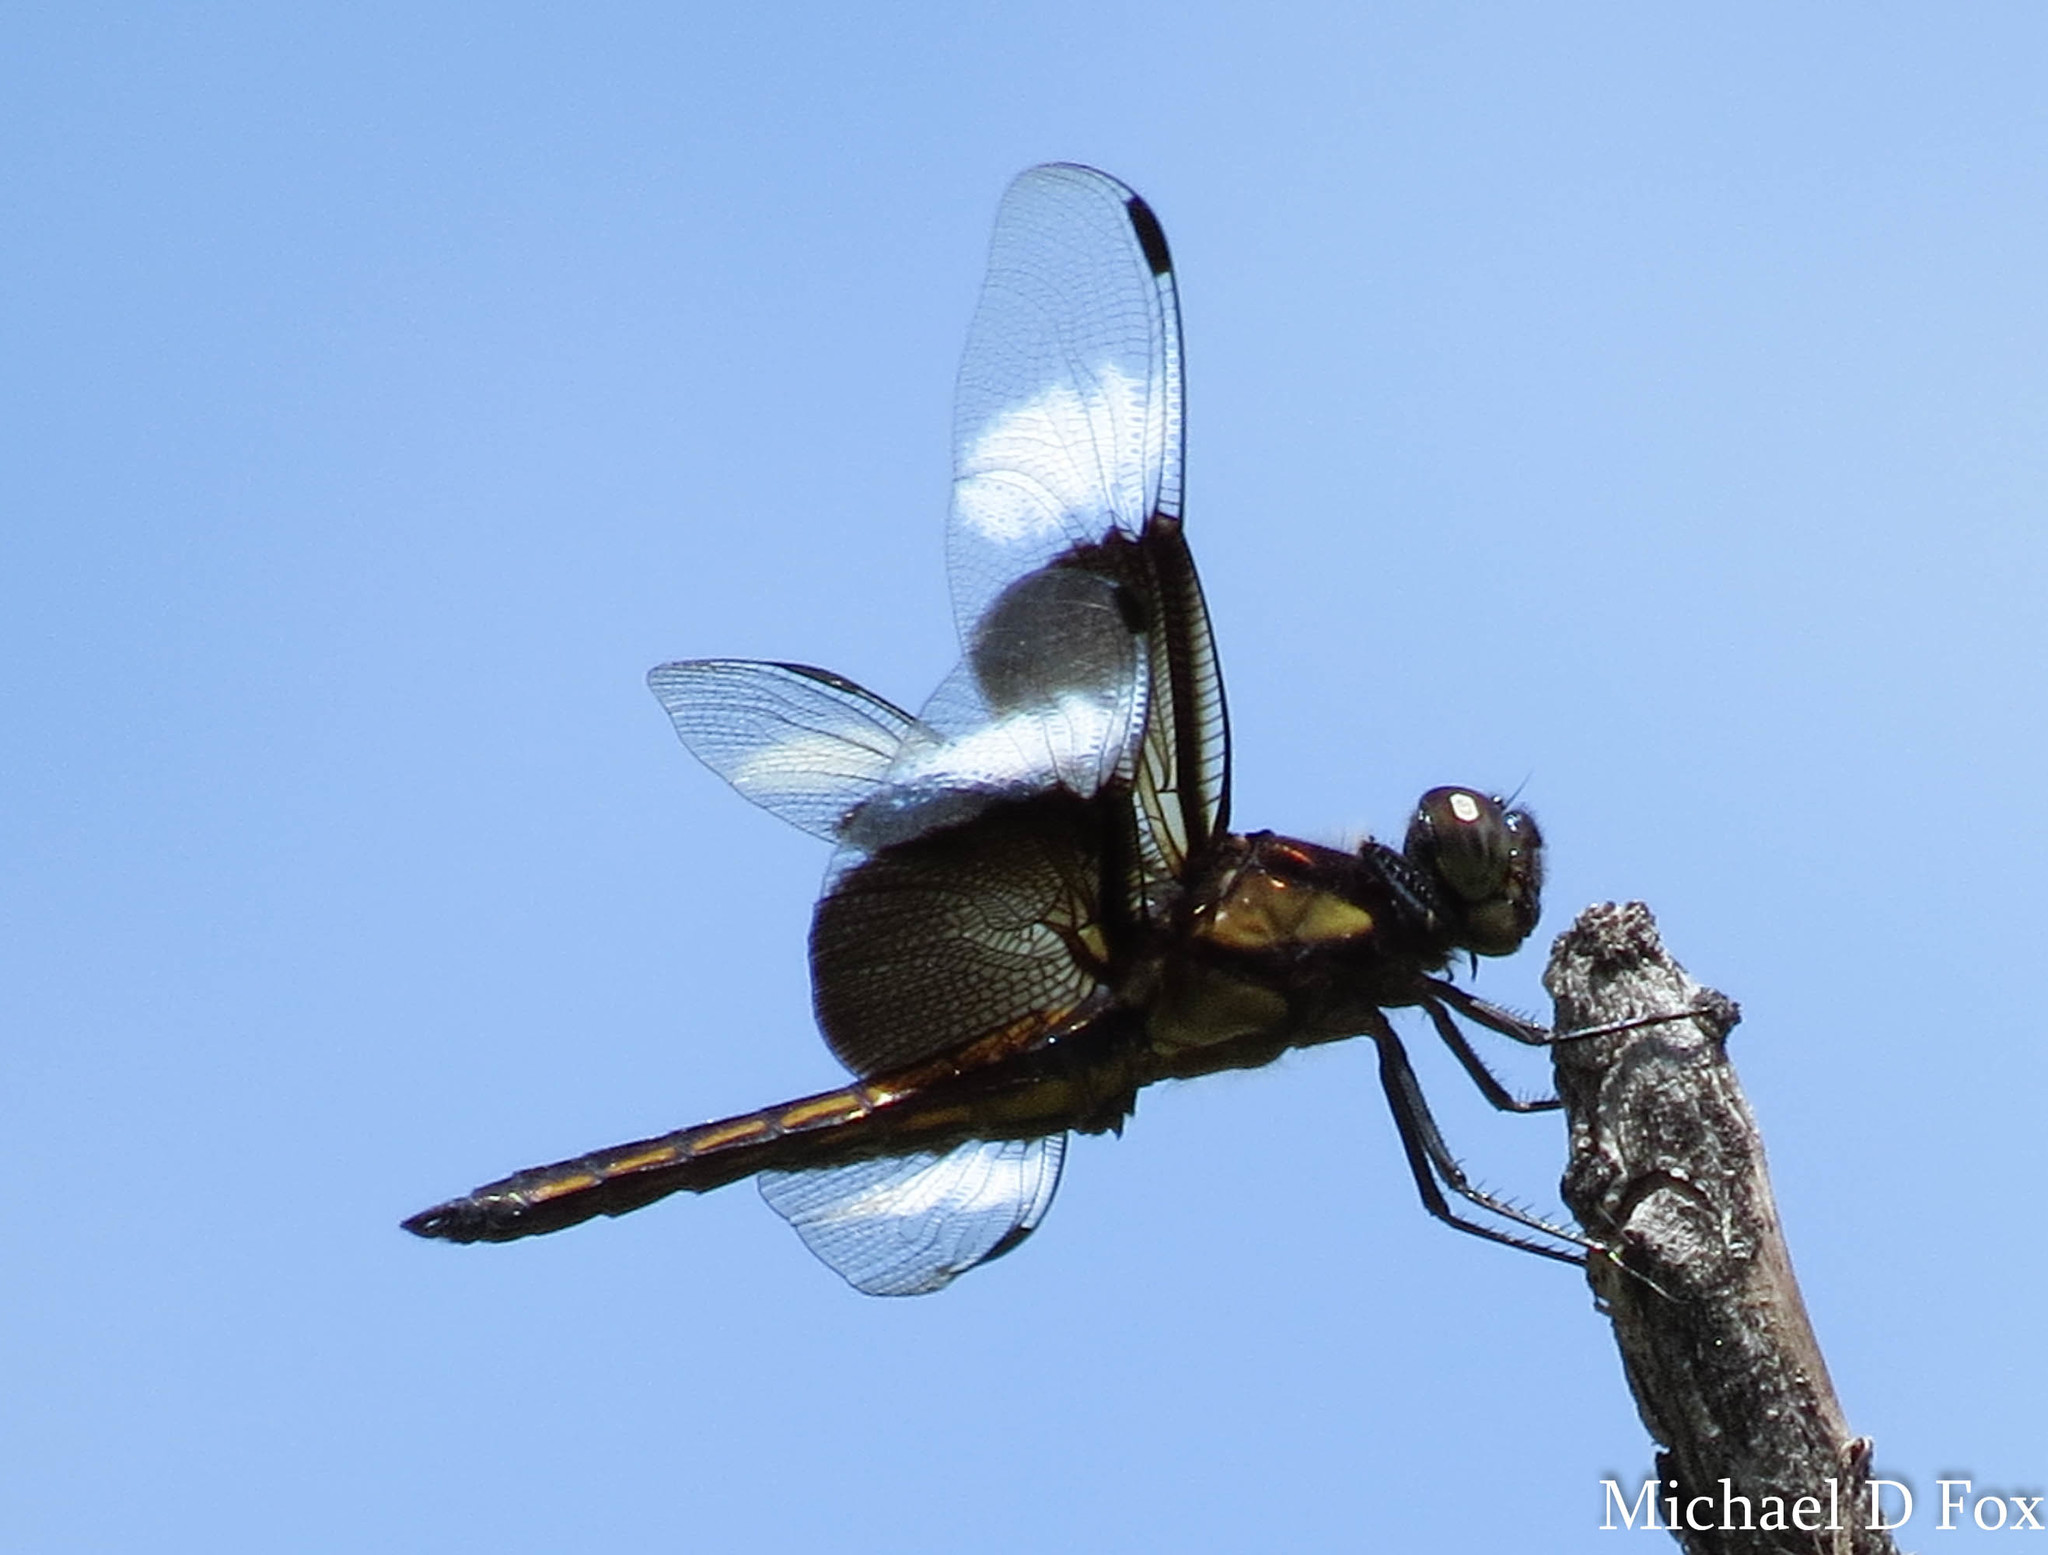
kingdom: Animalia
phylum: Arthropoda
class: Insecta
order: Odonata
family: Libellulidae
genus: Libellula
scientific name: Libellula luctuosa
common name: Widow skimmer
